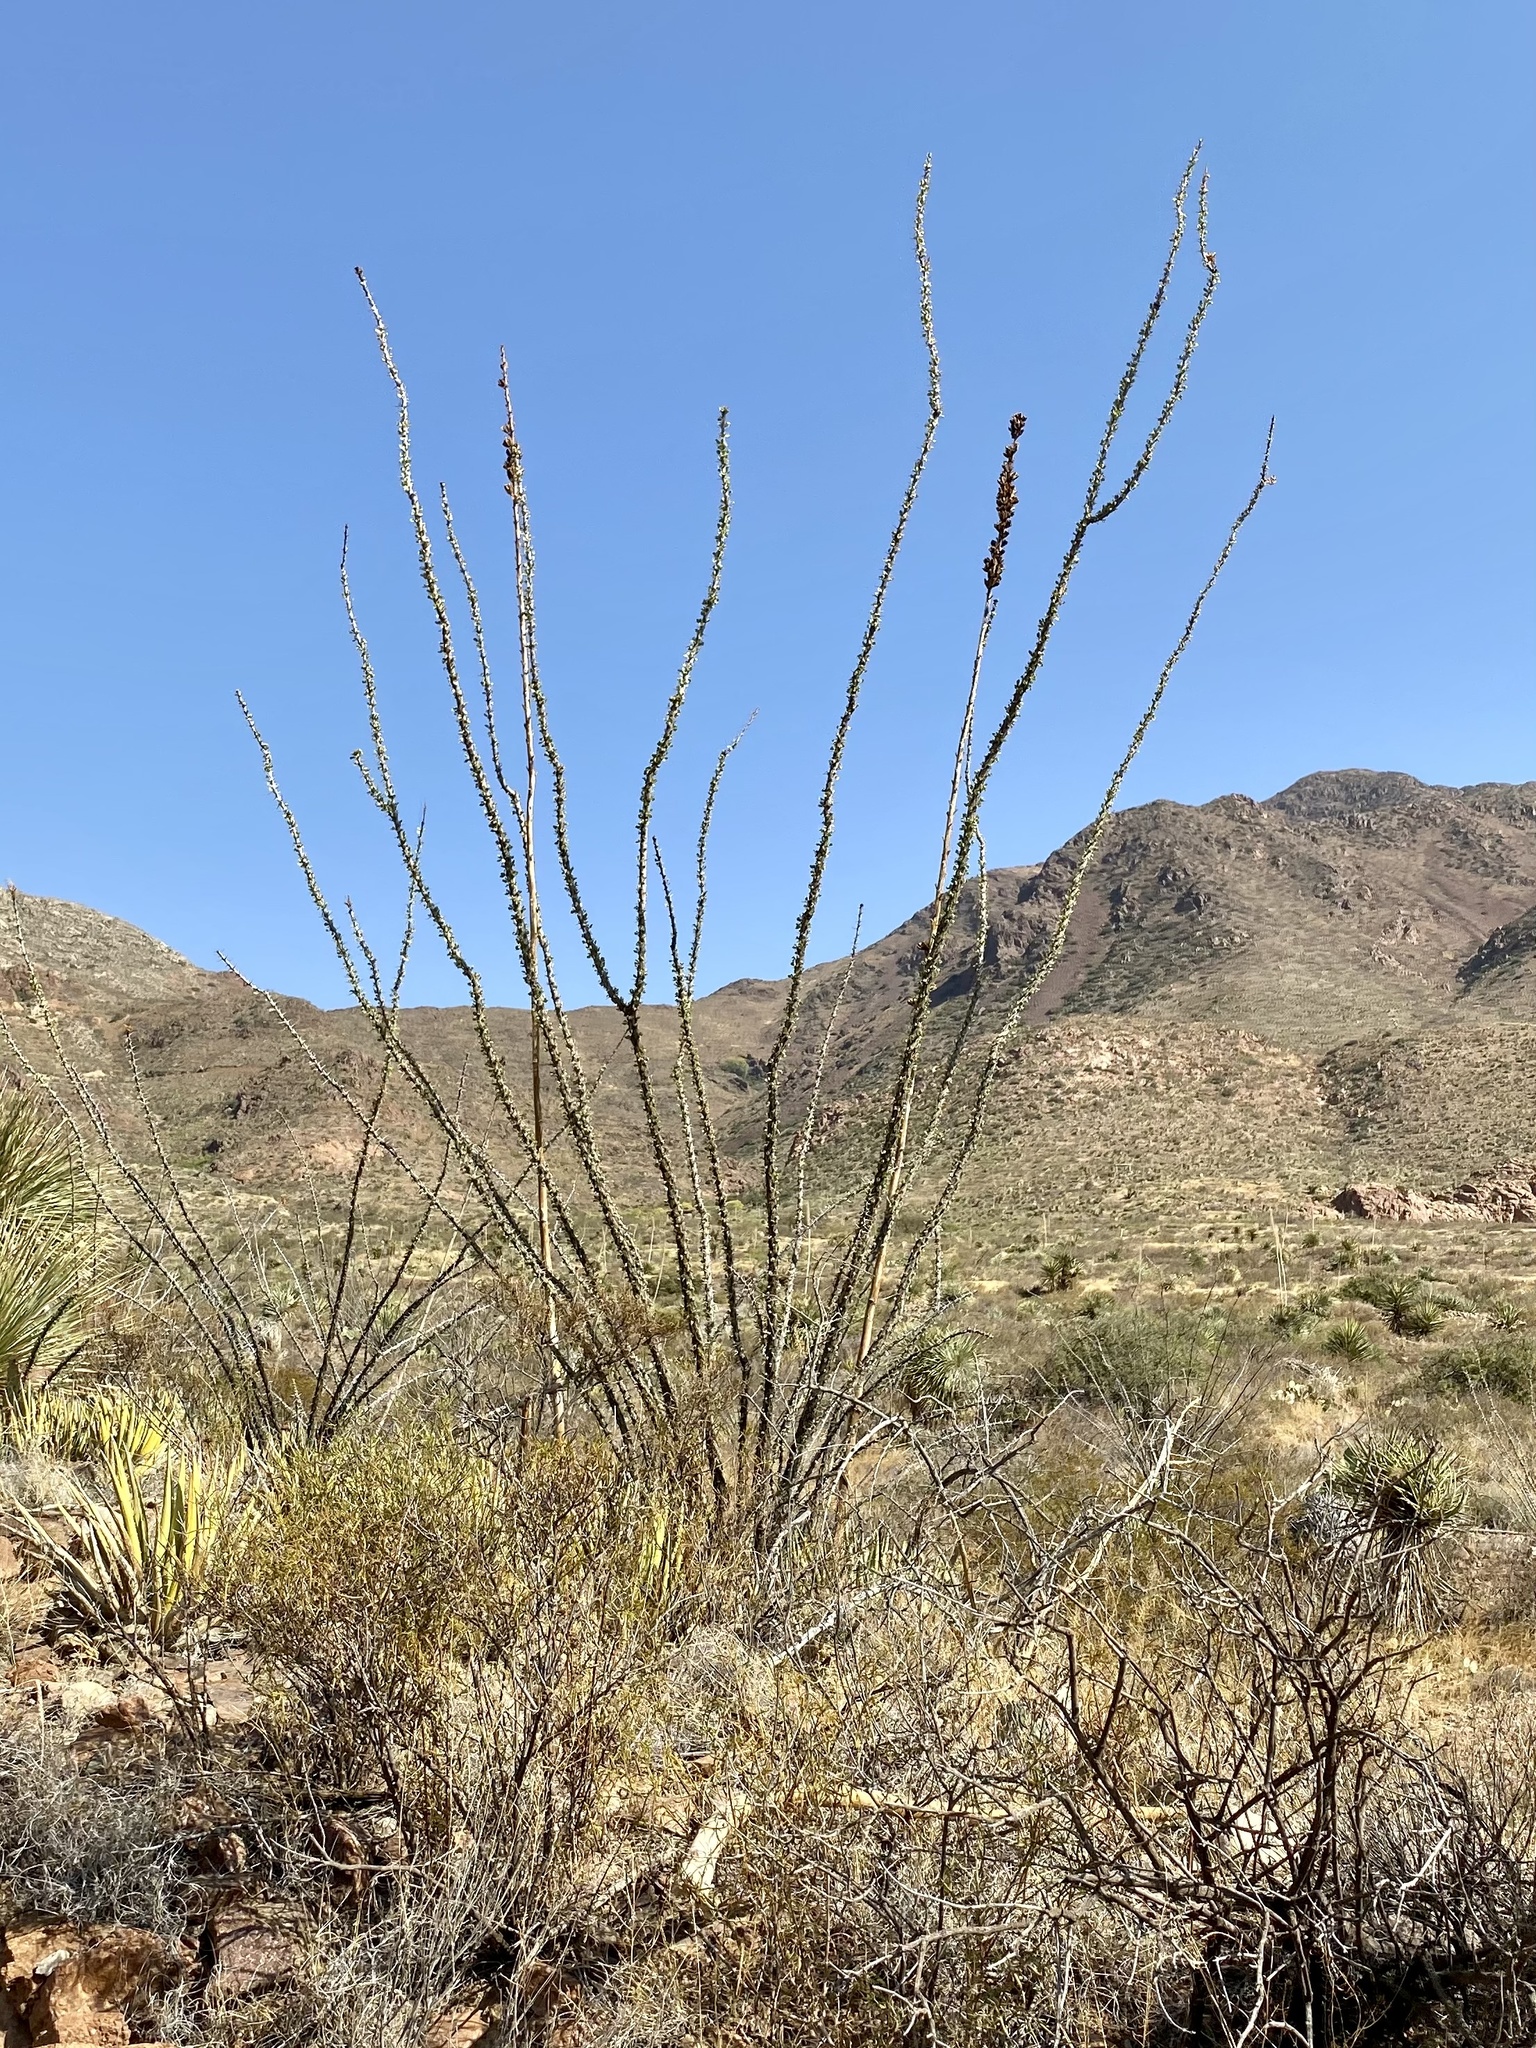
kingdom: Plantae
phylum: Tracheophyta
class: Magnoliopsida
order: Ericales
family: Fouquieriaceae
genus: Fouquieria
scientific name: Fouquieria splendens
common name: Vine-cactus
